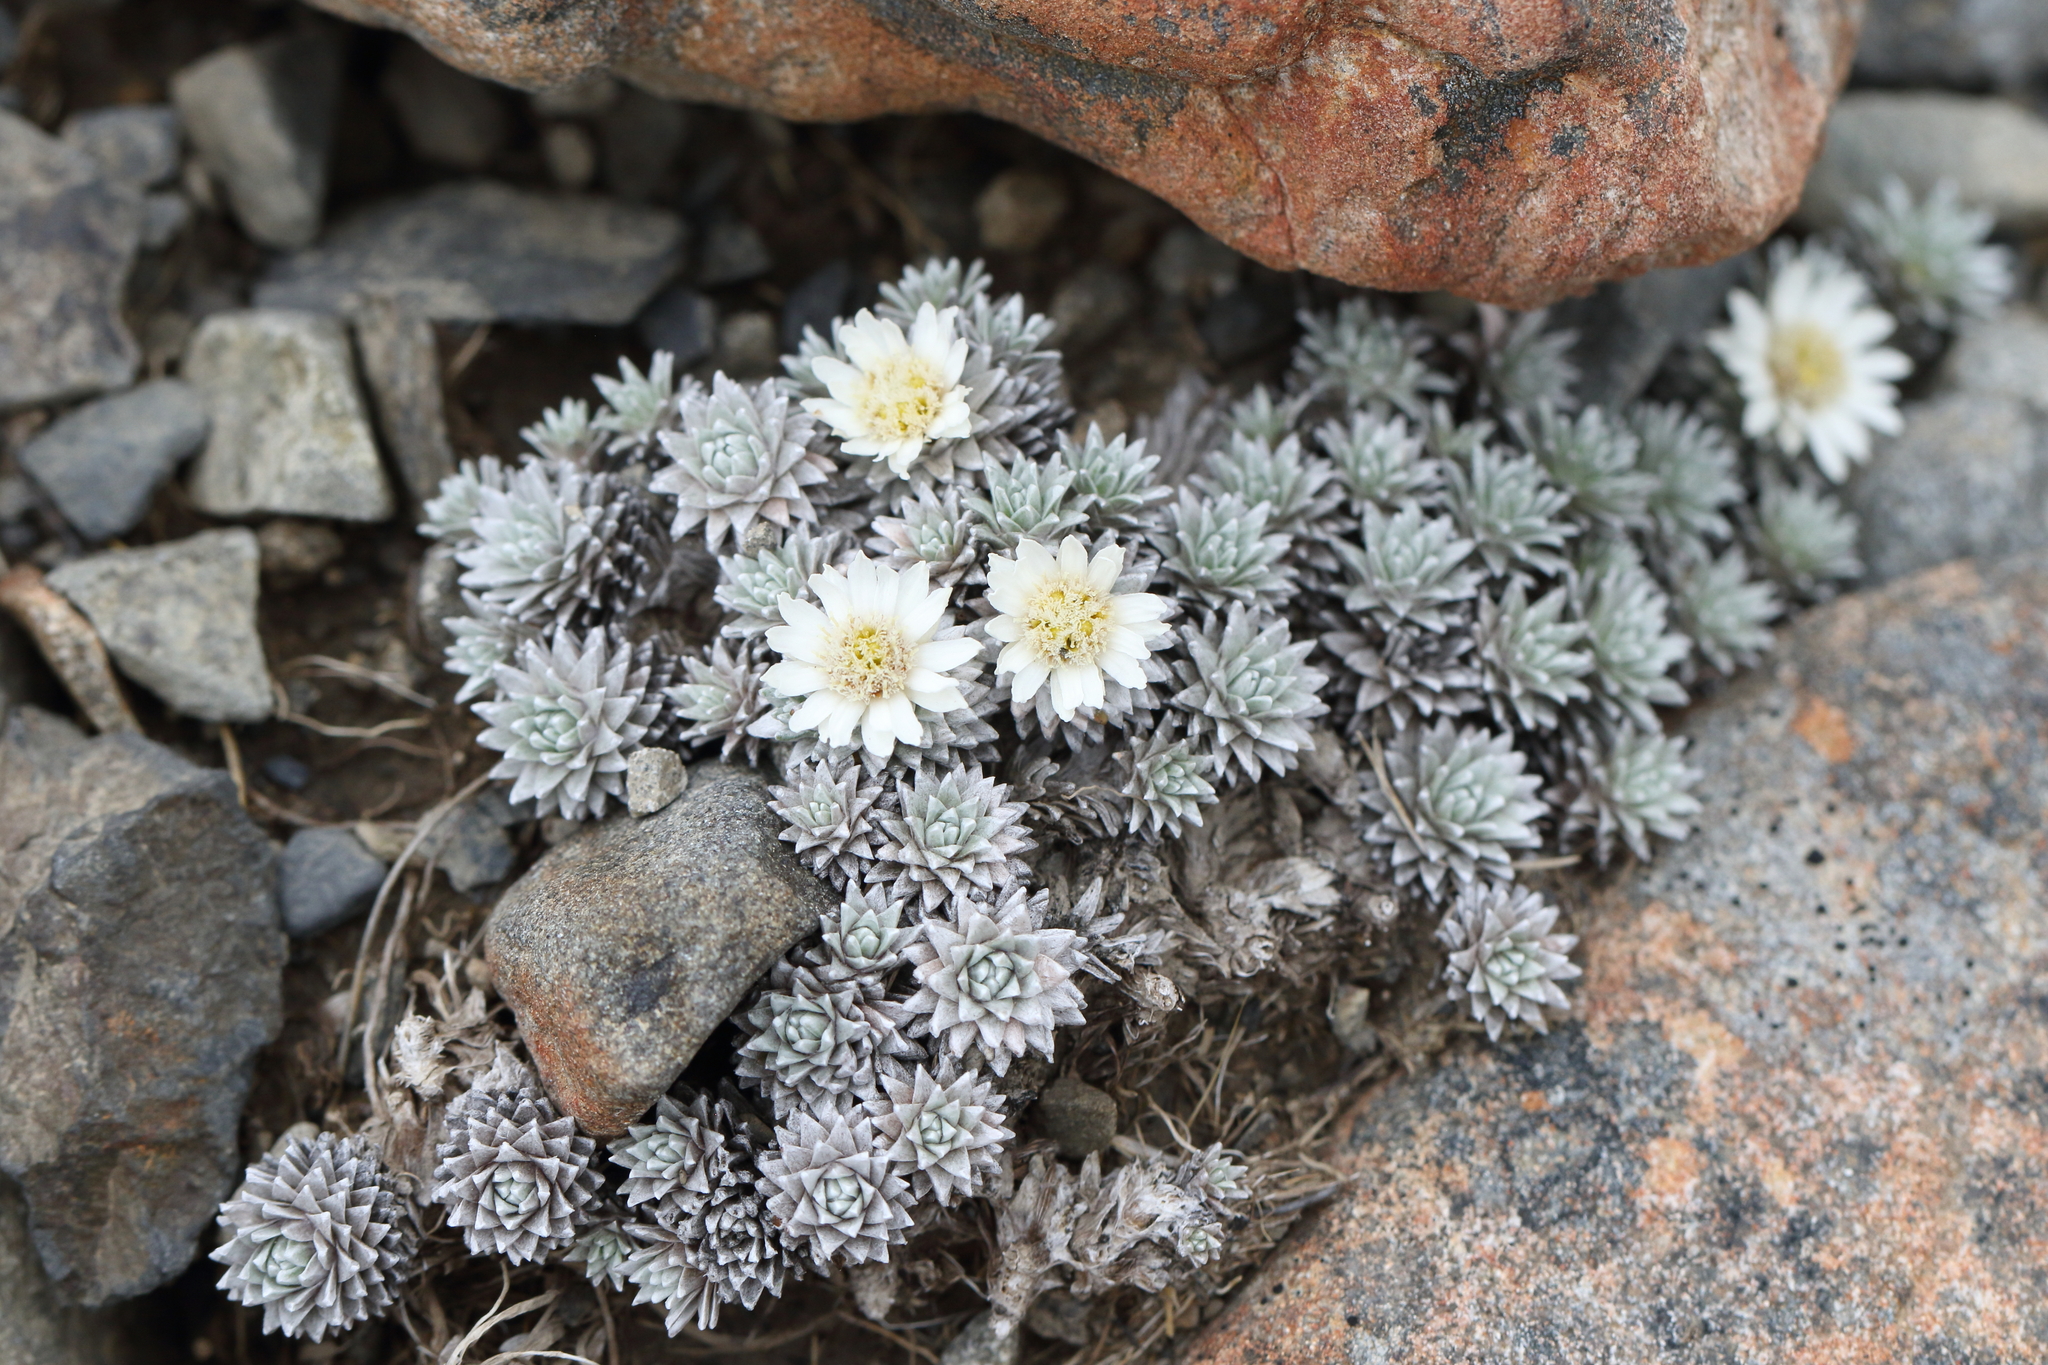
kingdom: Plantae
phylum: Tracheophyta
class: Magnoliopsida
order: Asterales
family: Asteraceae
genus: Raoulia
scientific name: Raoulia grandiflora
